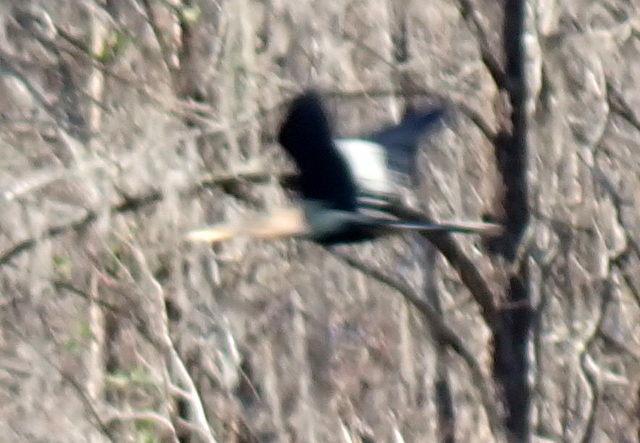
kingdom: Animalia
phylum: Chordata
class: Aves
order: Suliformes
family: Anhingidae
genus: Anhinga
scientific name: Anhinga anhinga
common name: Anhinga
